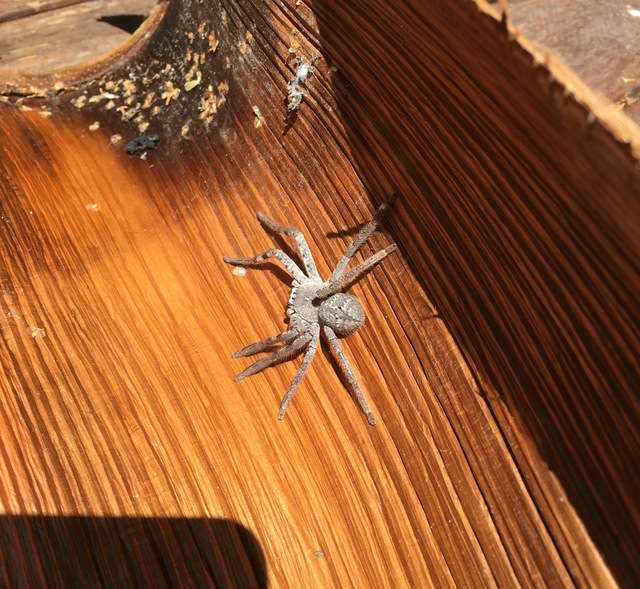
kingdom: Animalia
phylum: Arthropoda
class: Arachnida
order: Araneae
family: Sparassidae
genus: Isopedella
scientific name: Isopedella victorialis
